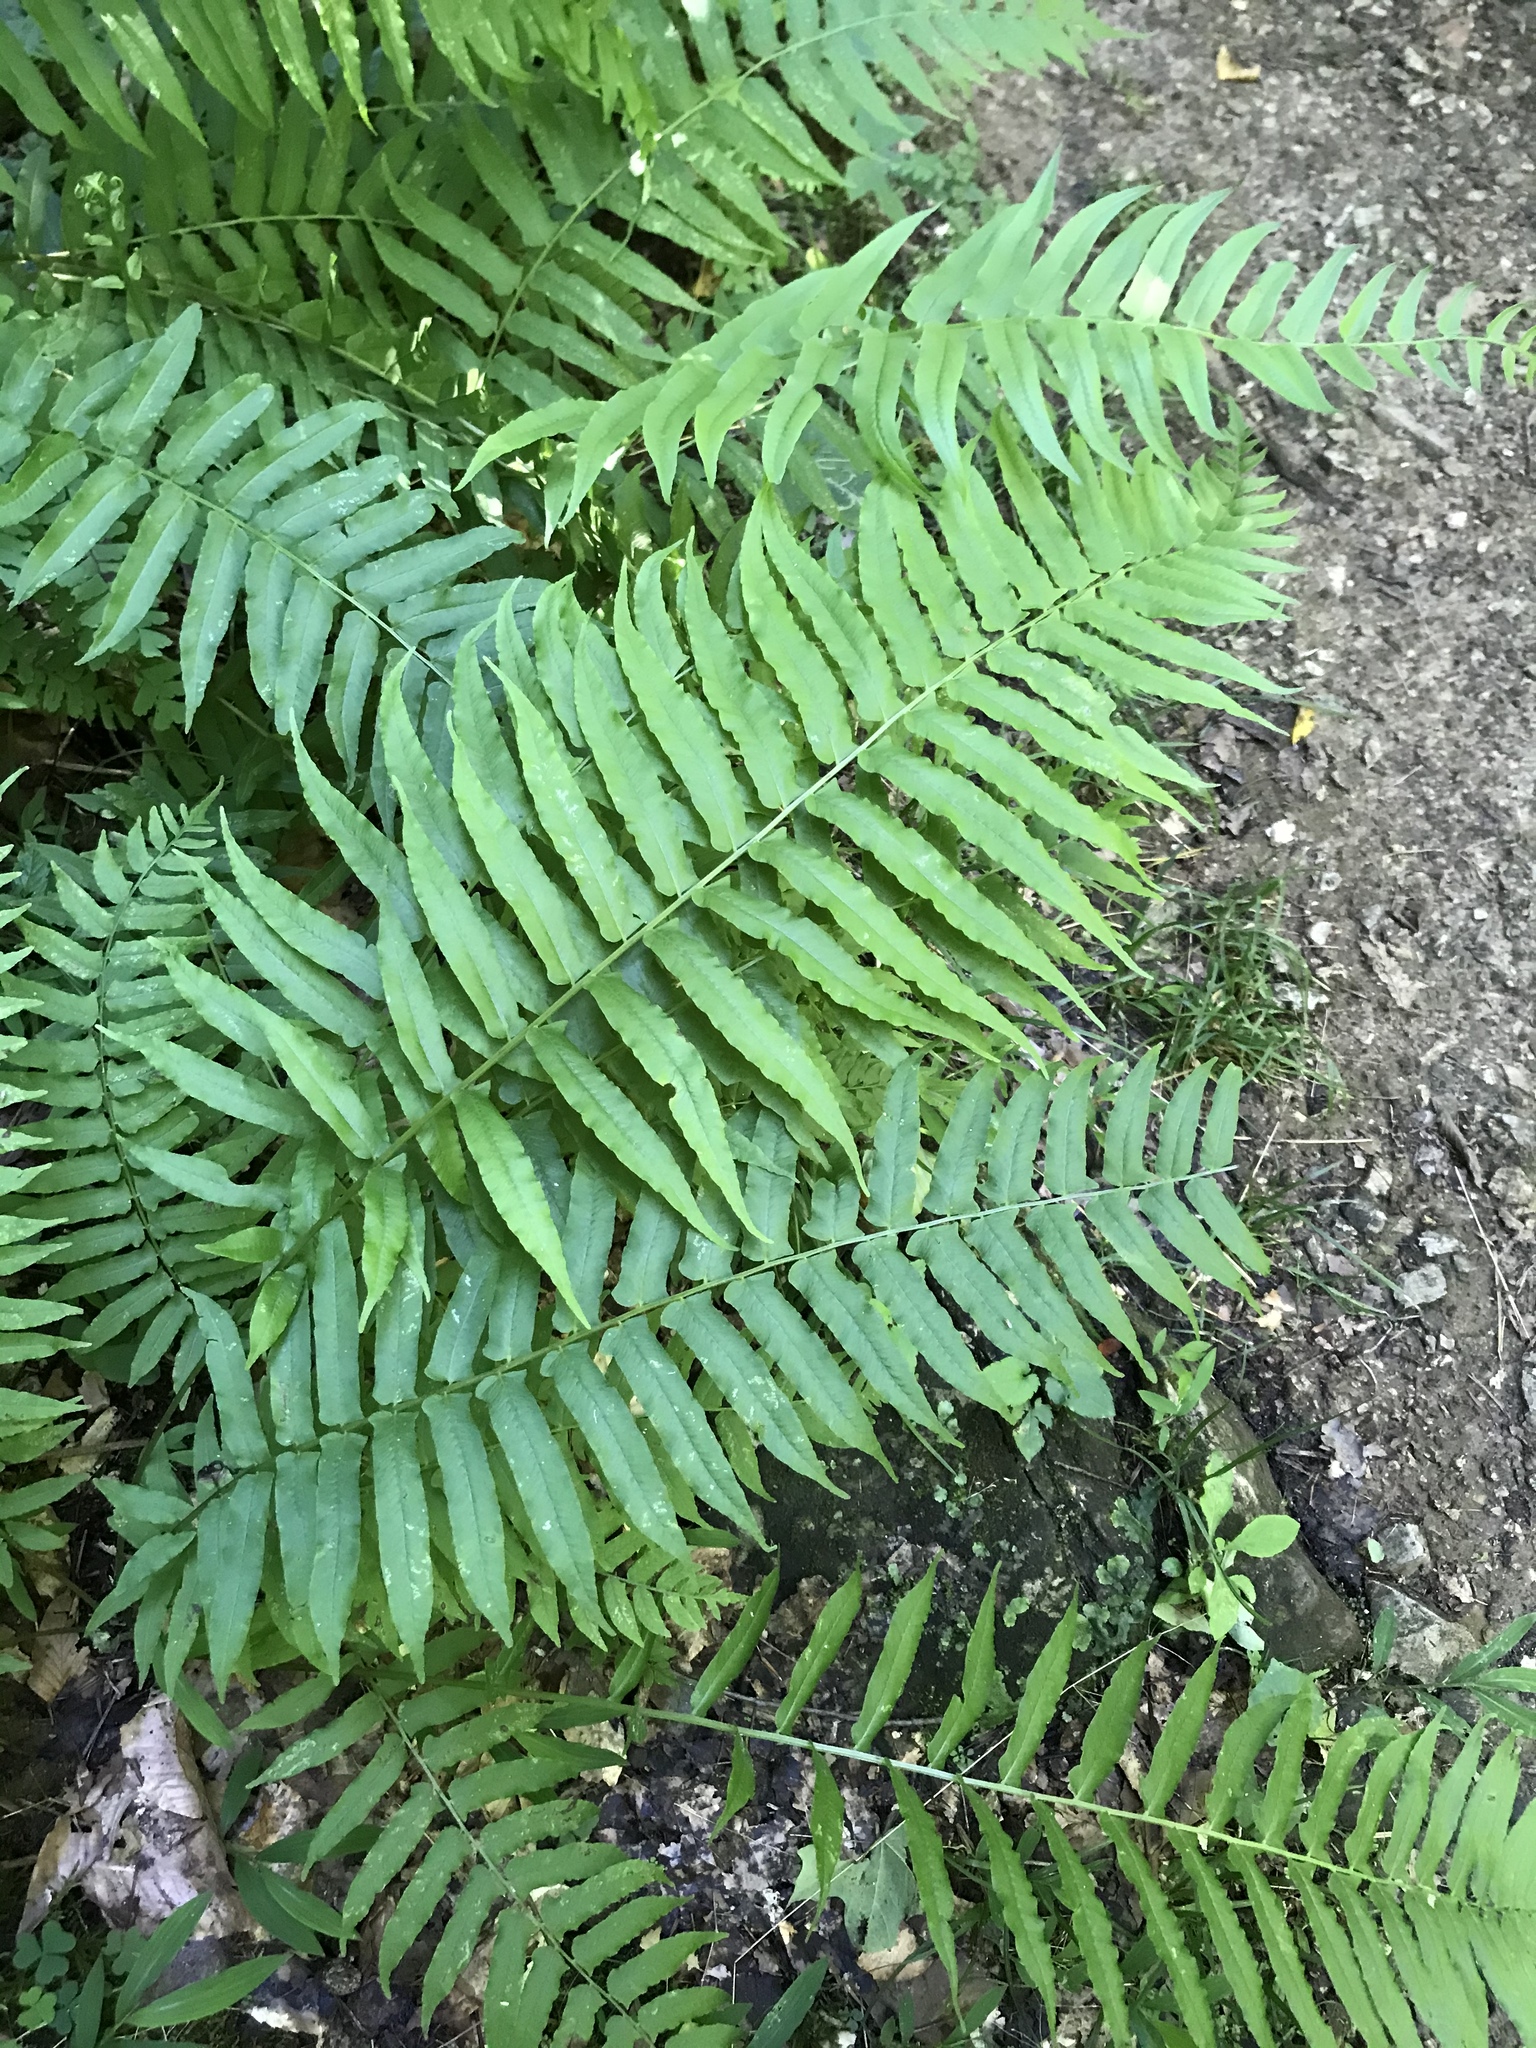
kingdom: Plantae
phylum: Tracheophyta
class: Polypodiopsida
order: Polypodiales
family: Diplaziopsidaceae
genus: Homalosorus
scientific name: Homalosorus pycnocarpos
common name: Glade fern
